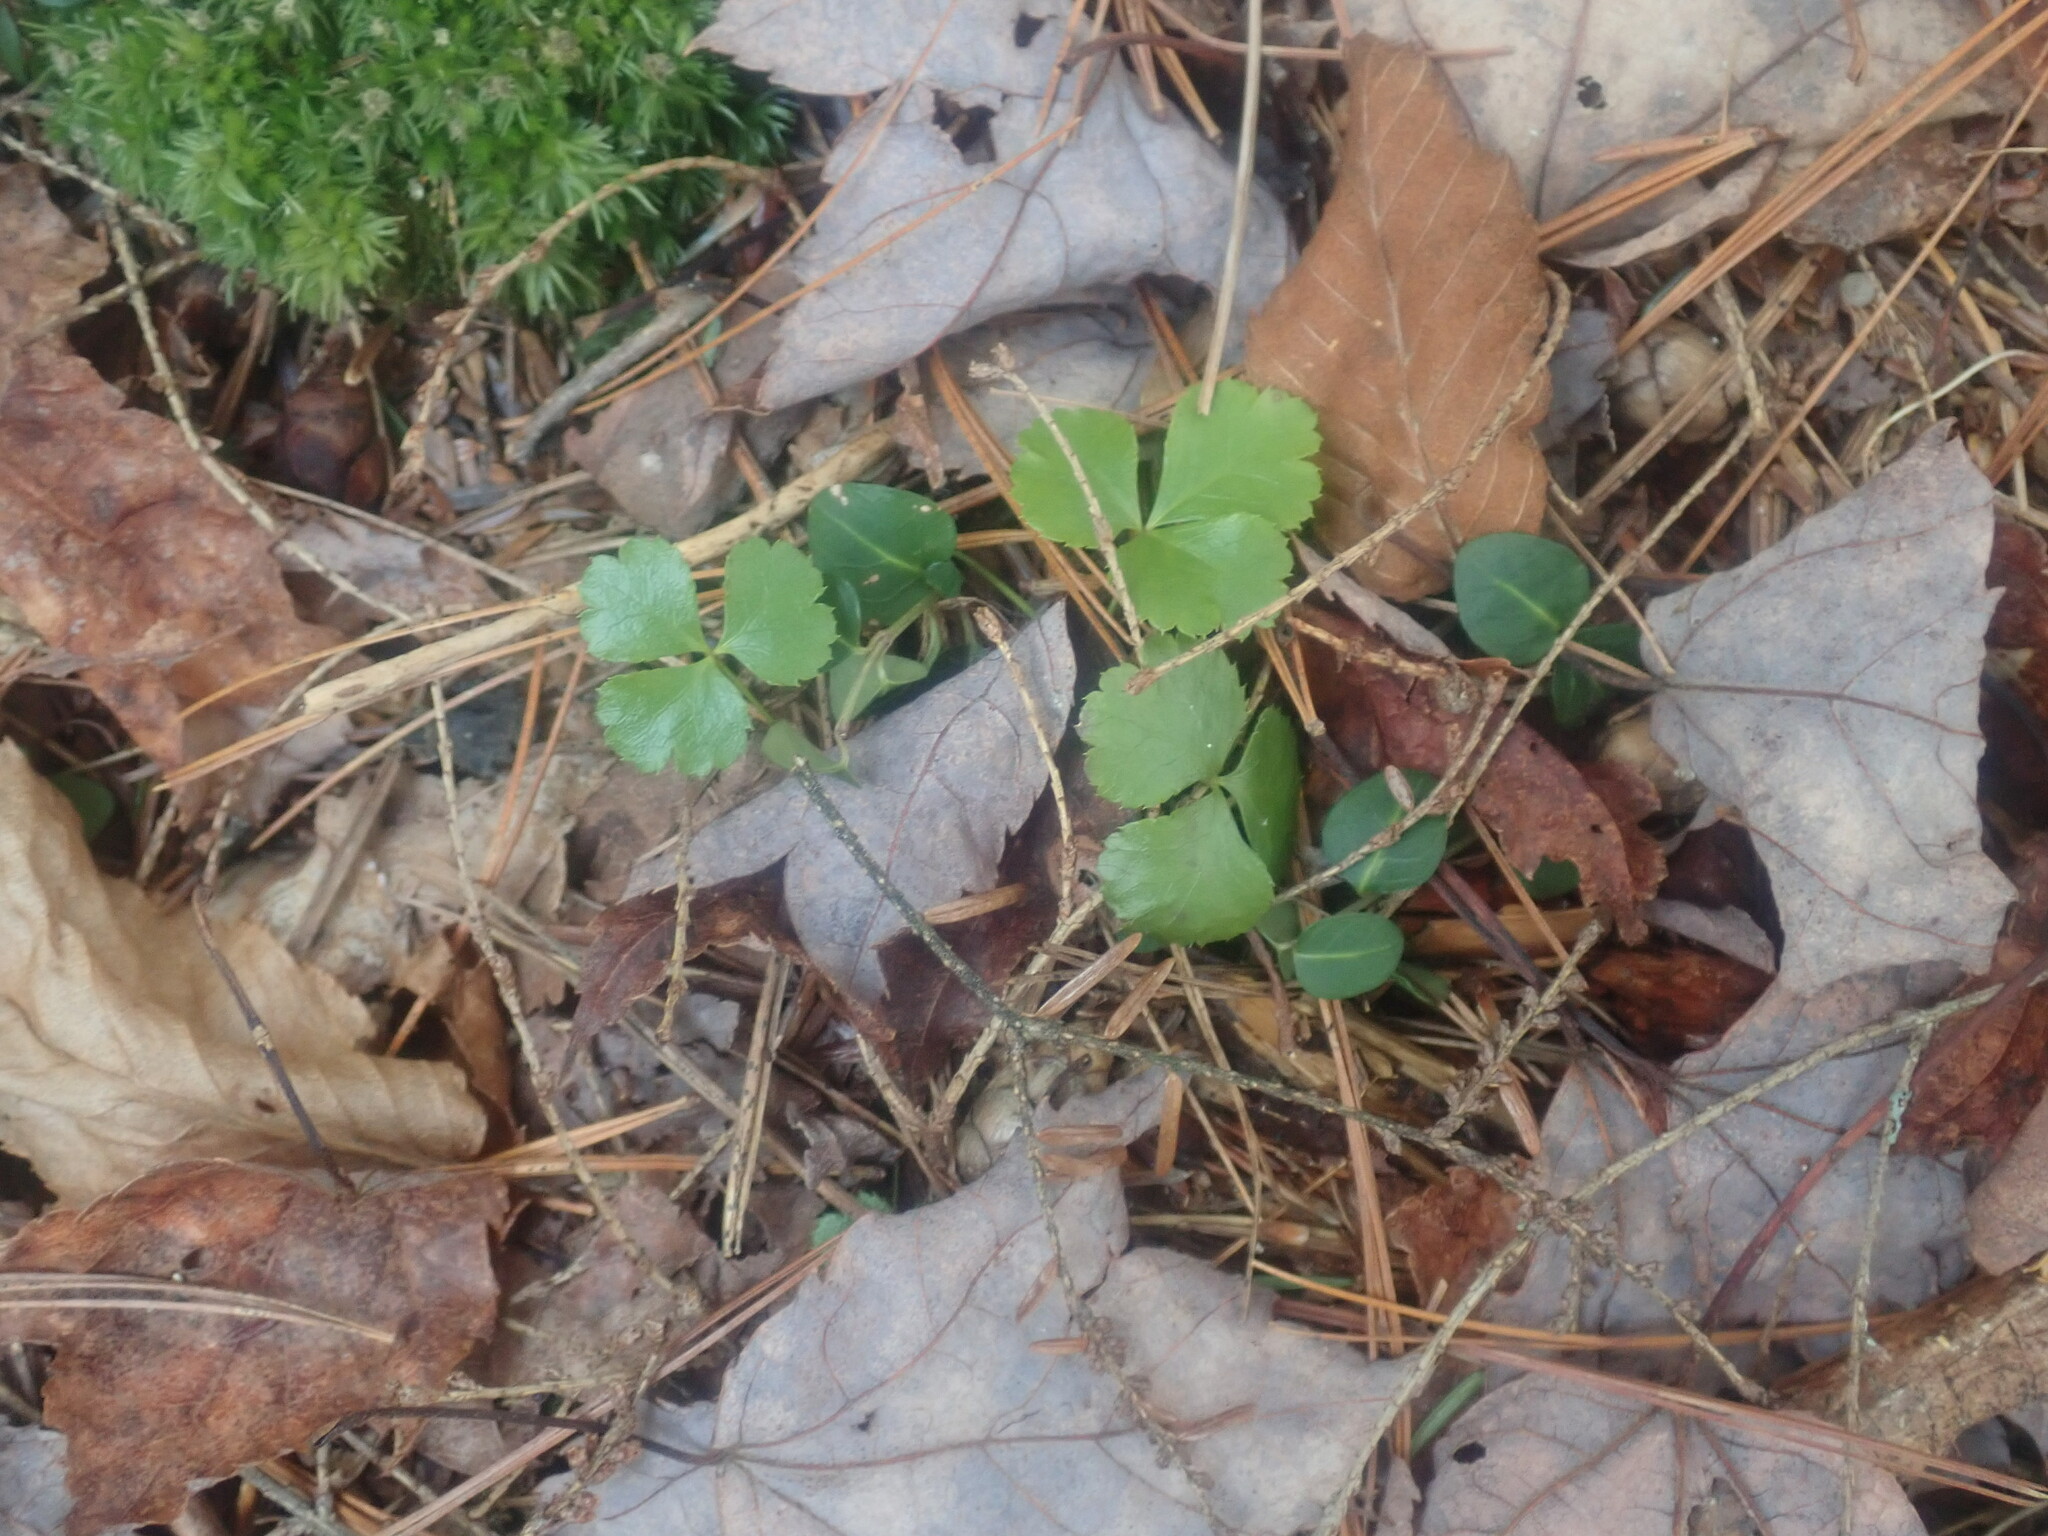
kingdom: Plantae
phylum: Tracheophyta
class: Magnoliopsida
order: Ranunculales
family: Ranunculaceae
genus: Coptis
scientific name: Coptis trifolia
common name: Canker-root
